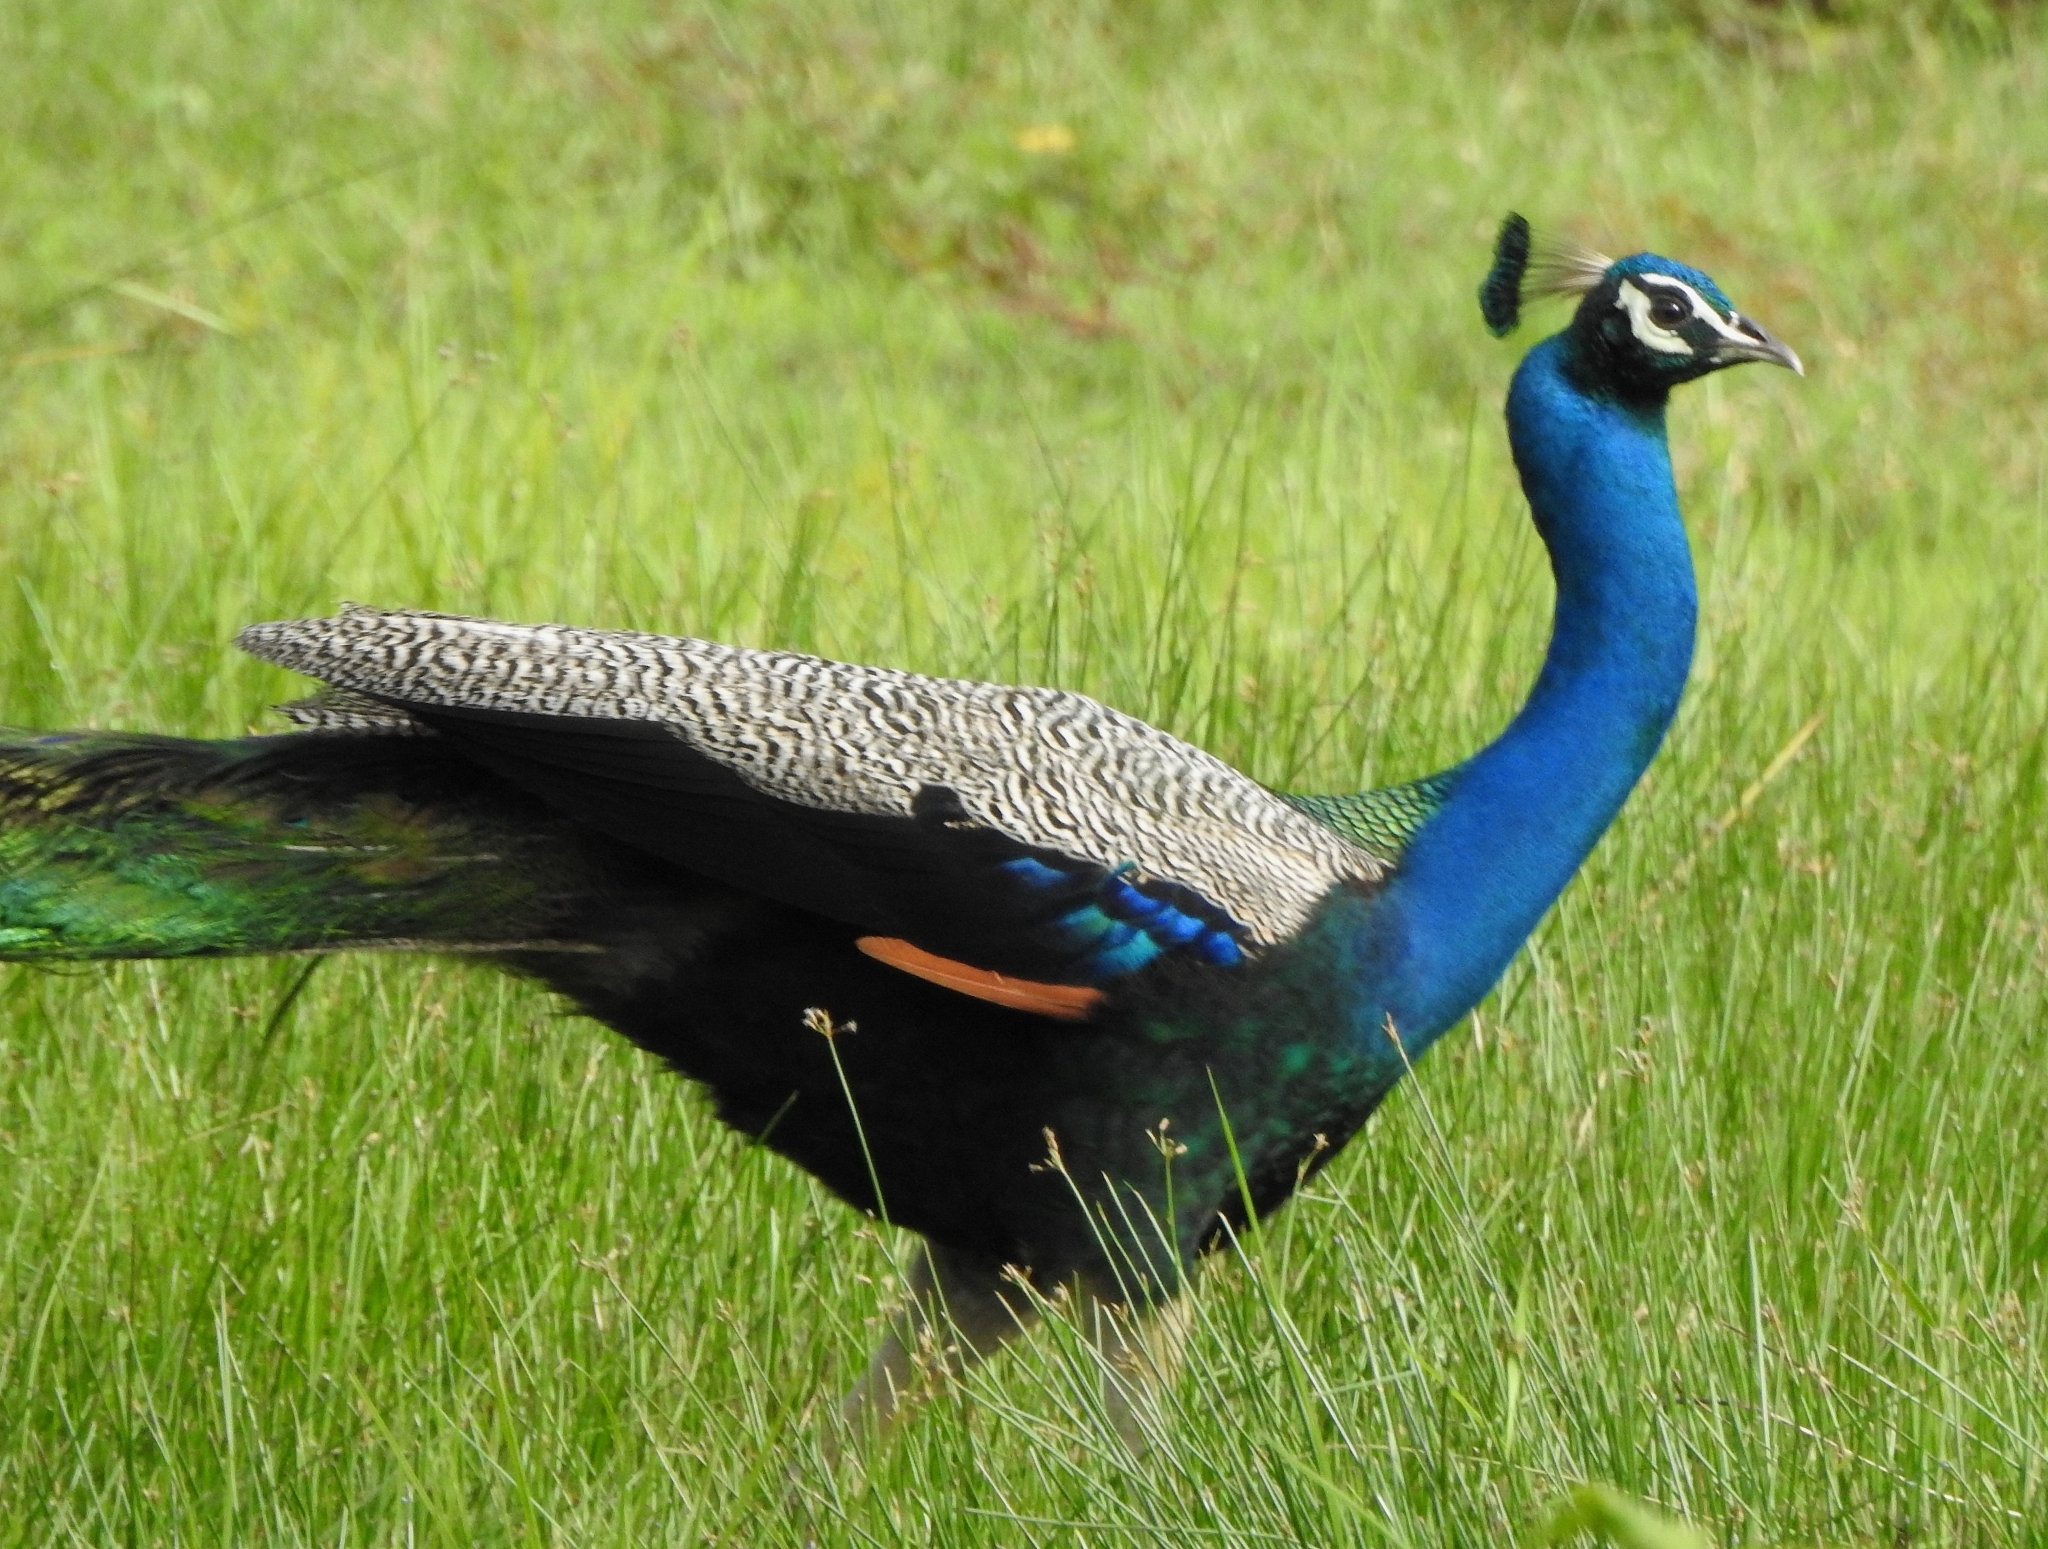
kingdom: Animalia
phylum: Chordata
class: Aves
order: Galliformes
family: Phasianidae
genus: Pavo
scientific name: Pavo cristatus
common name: Indian peafowl
